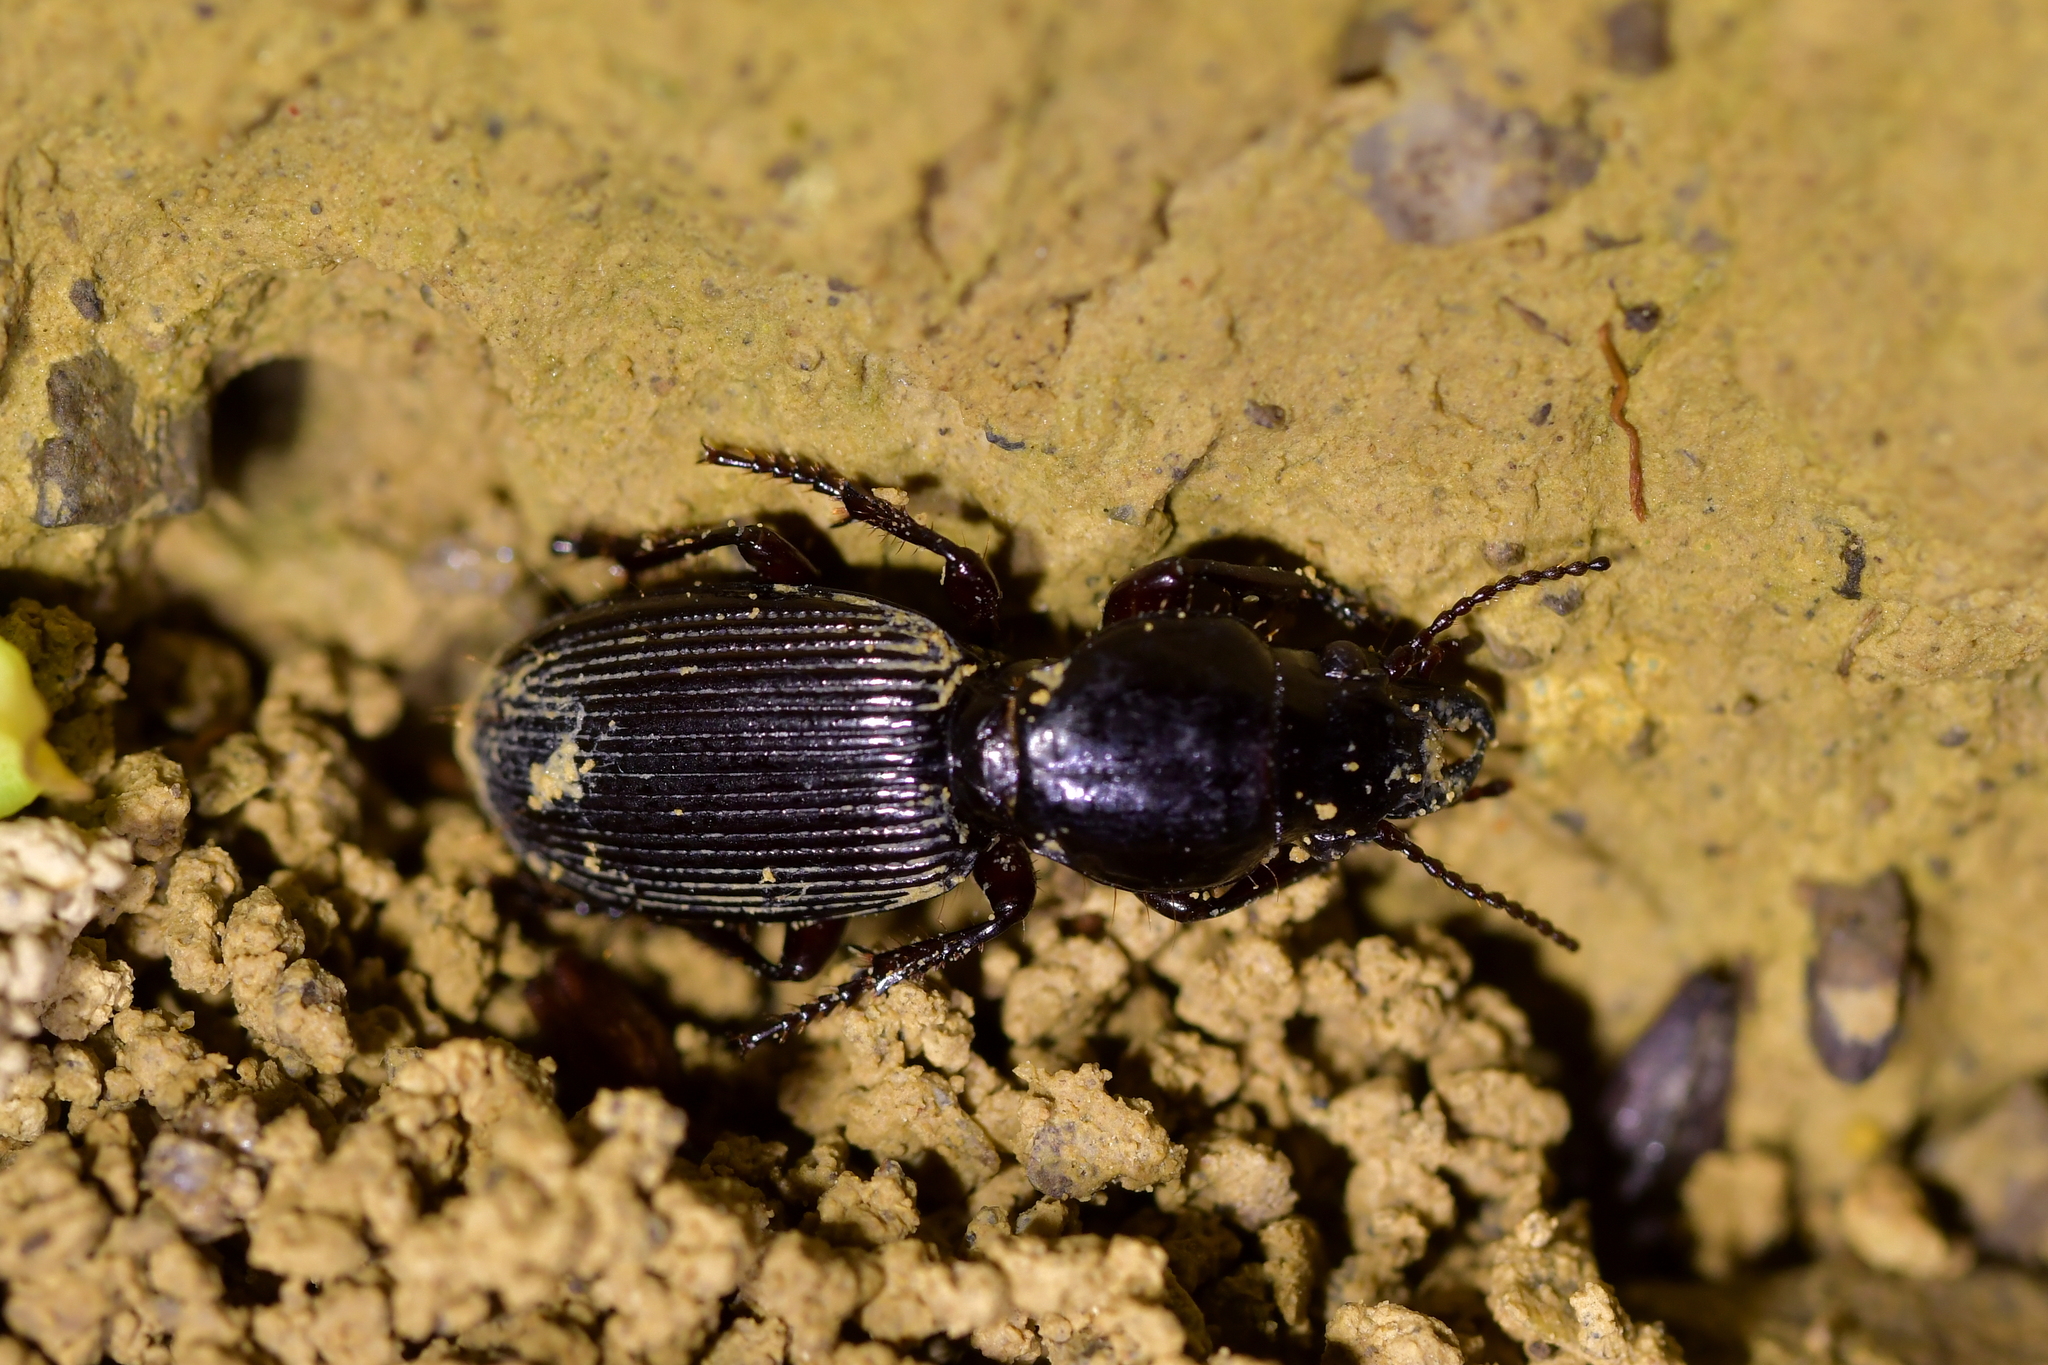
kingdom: Animalia
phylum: Arthropoda
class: Insecta
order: Coleoptera
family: Carabidae
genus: Mecodema
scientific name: Mecodema oblongum
